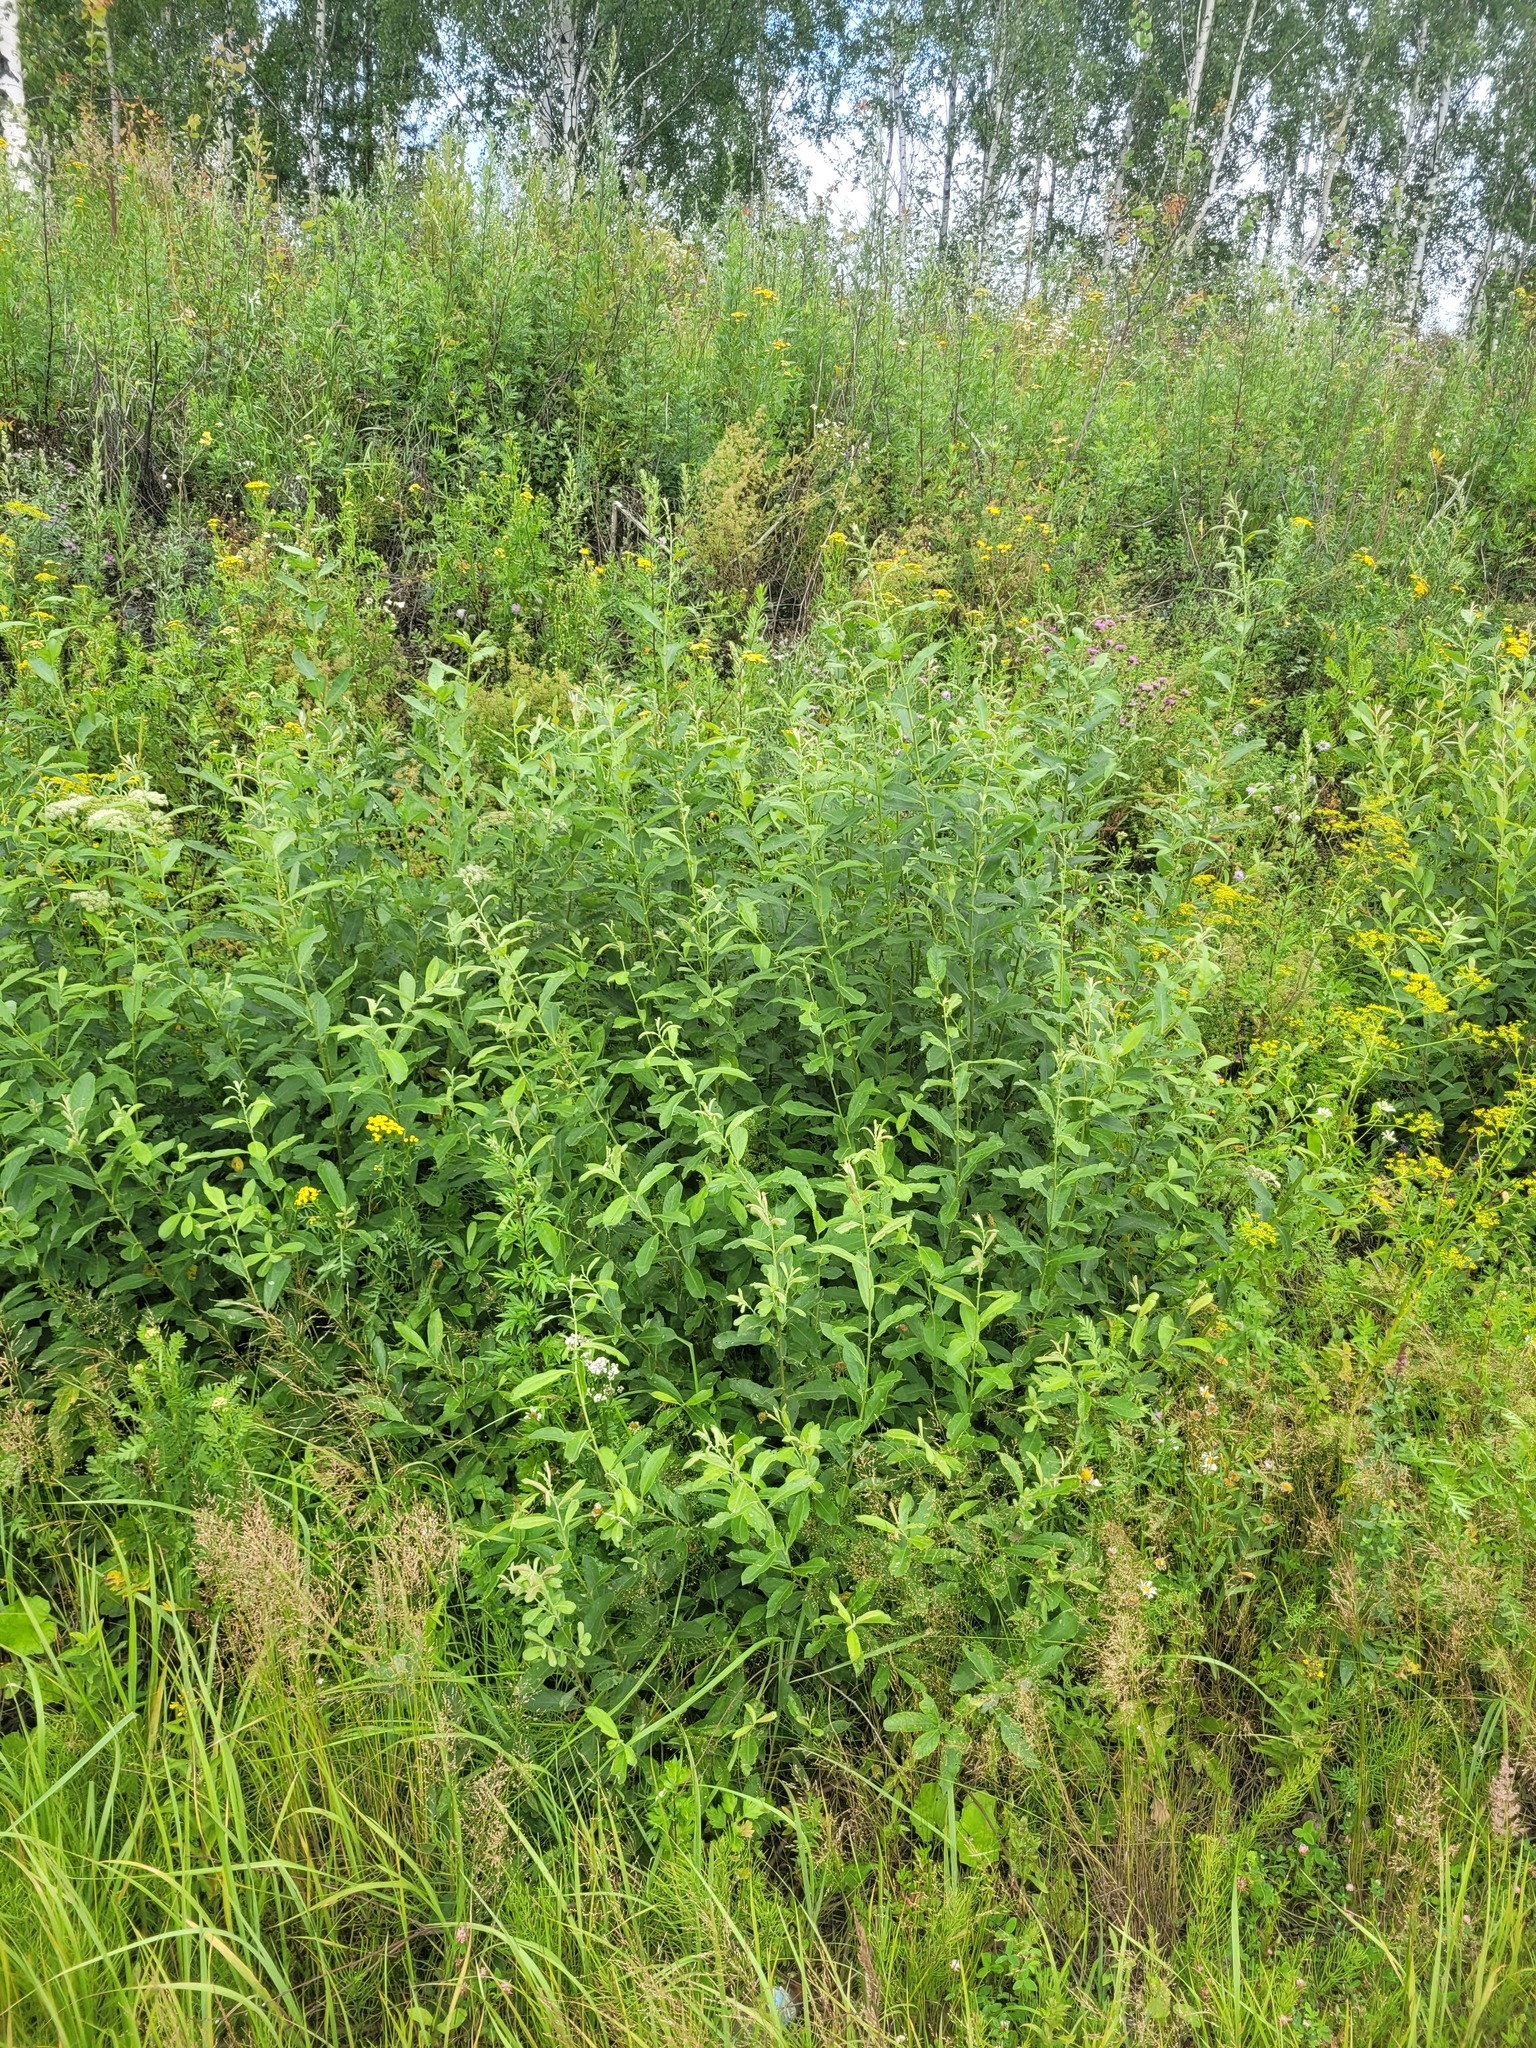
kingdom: Plantae
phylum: Tracheophyta
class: Magnoliopsida
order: Malpighiales
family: Salicaceae
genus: Salix
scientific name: Salix cinerea
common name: Common sallow
